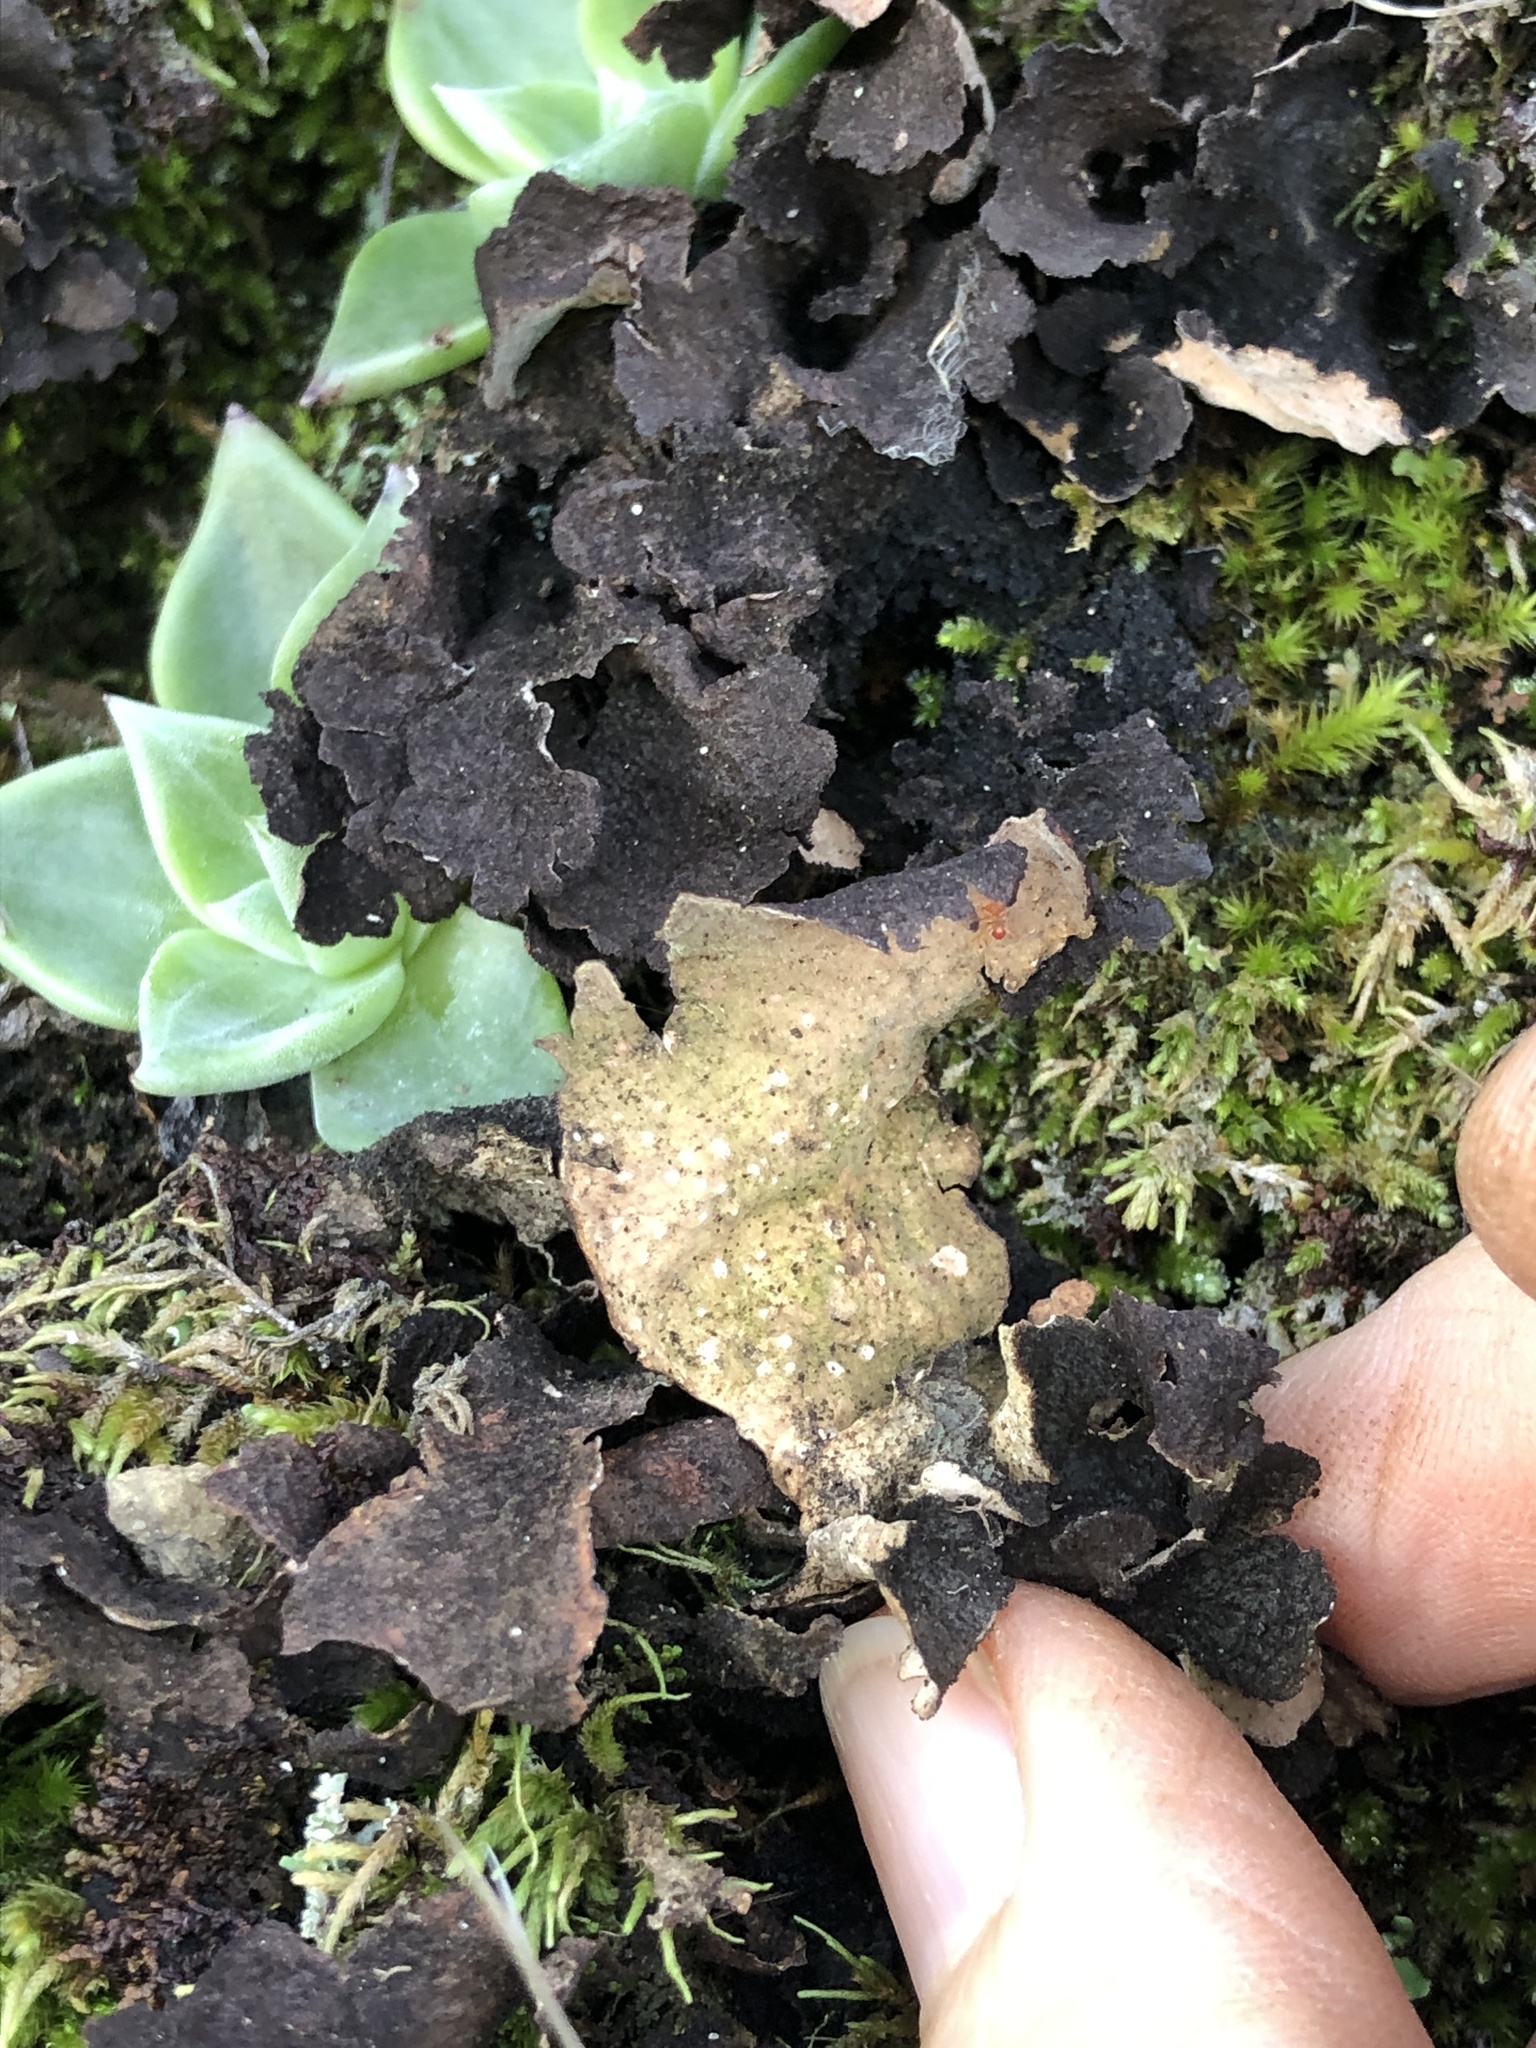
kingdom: Fungi
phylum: Ascomycota
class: Lecanoromycetes
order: Peltigerales
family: Lobariaceae
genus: Sticta
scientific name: Sticta
